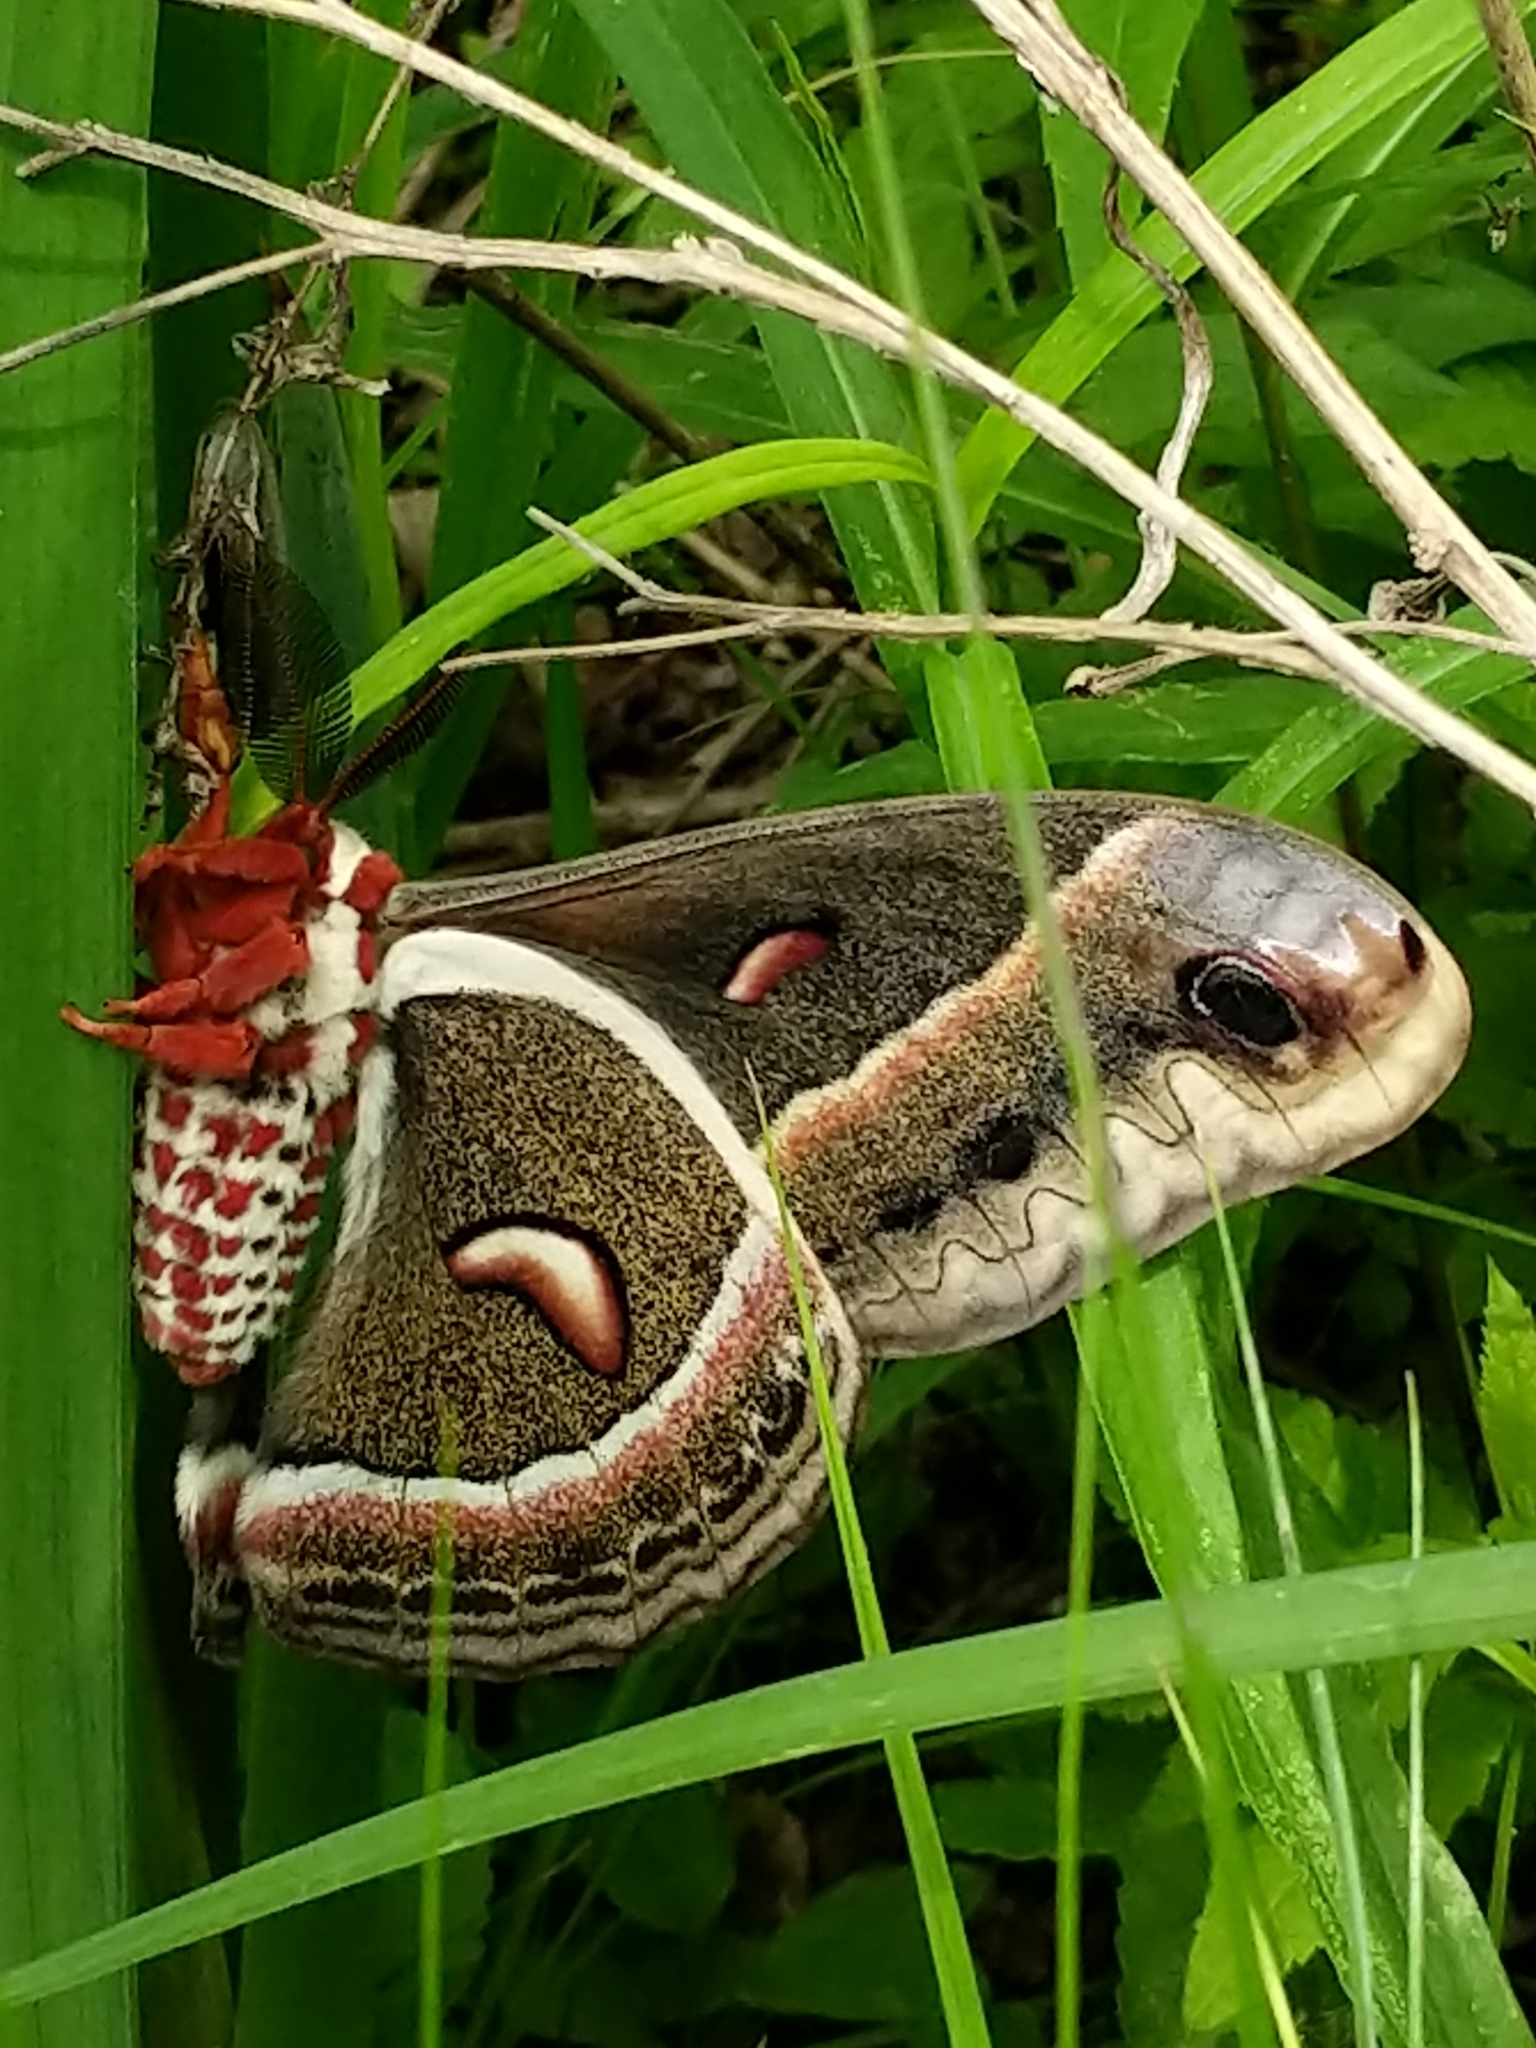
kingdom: Animalia
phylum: Arthropoda
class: Insecta
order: Lepidoptera
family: Saturniidae
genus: Hyalophora
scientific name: Hyalophora cecropia
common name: Cecropia silkmoth
